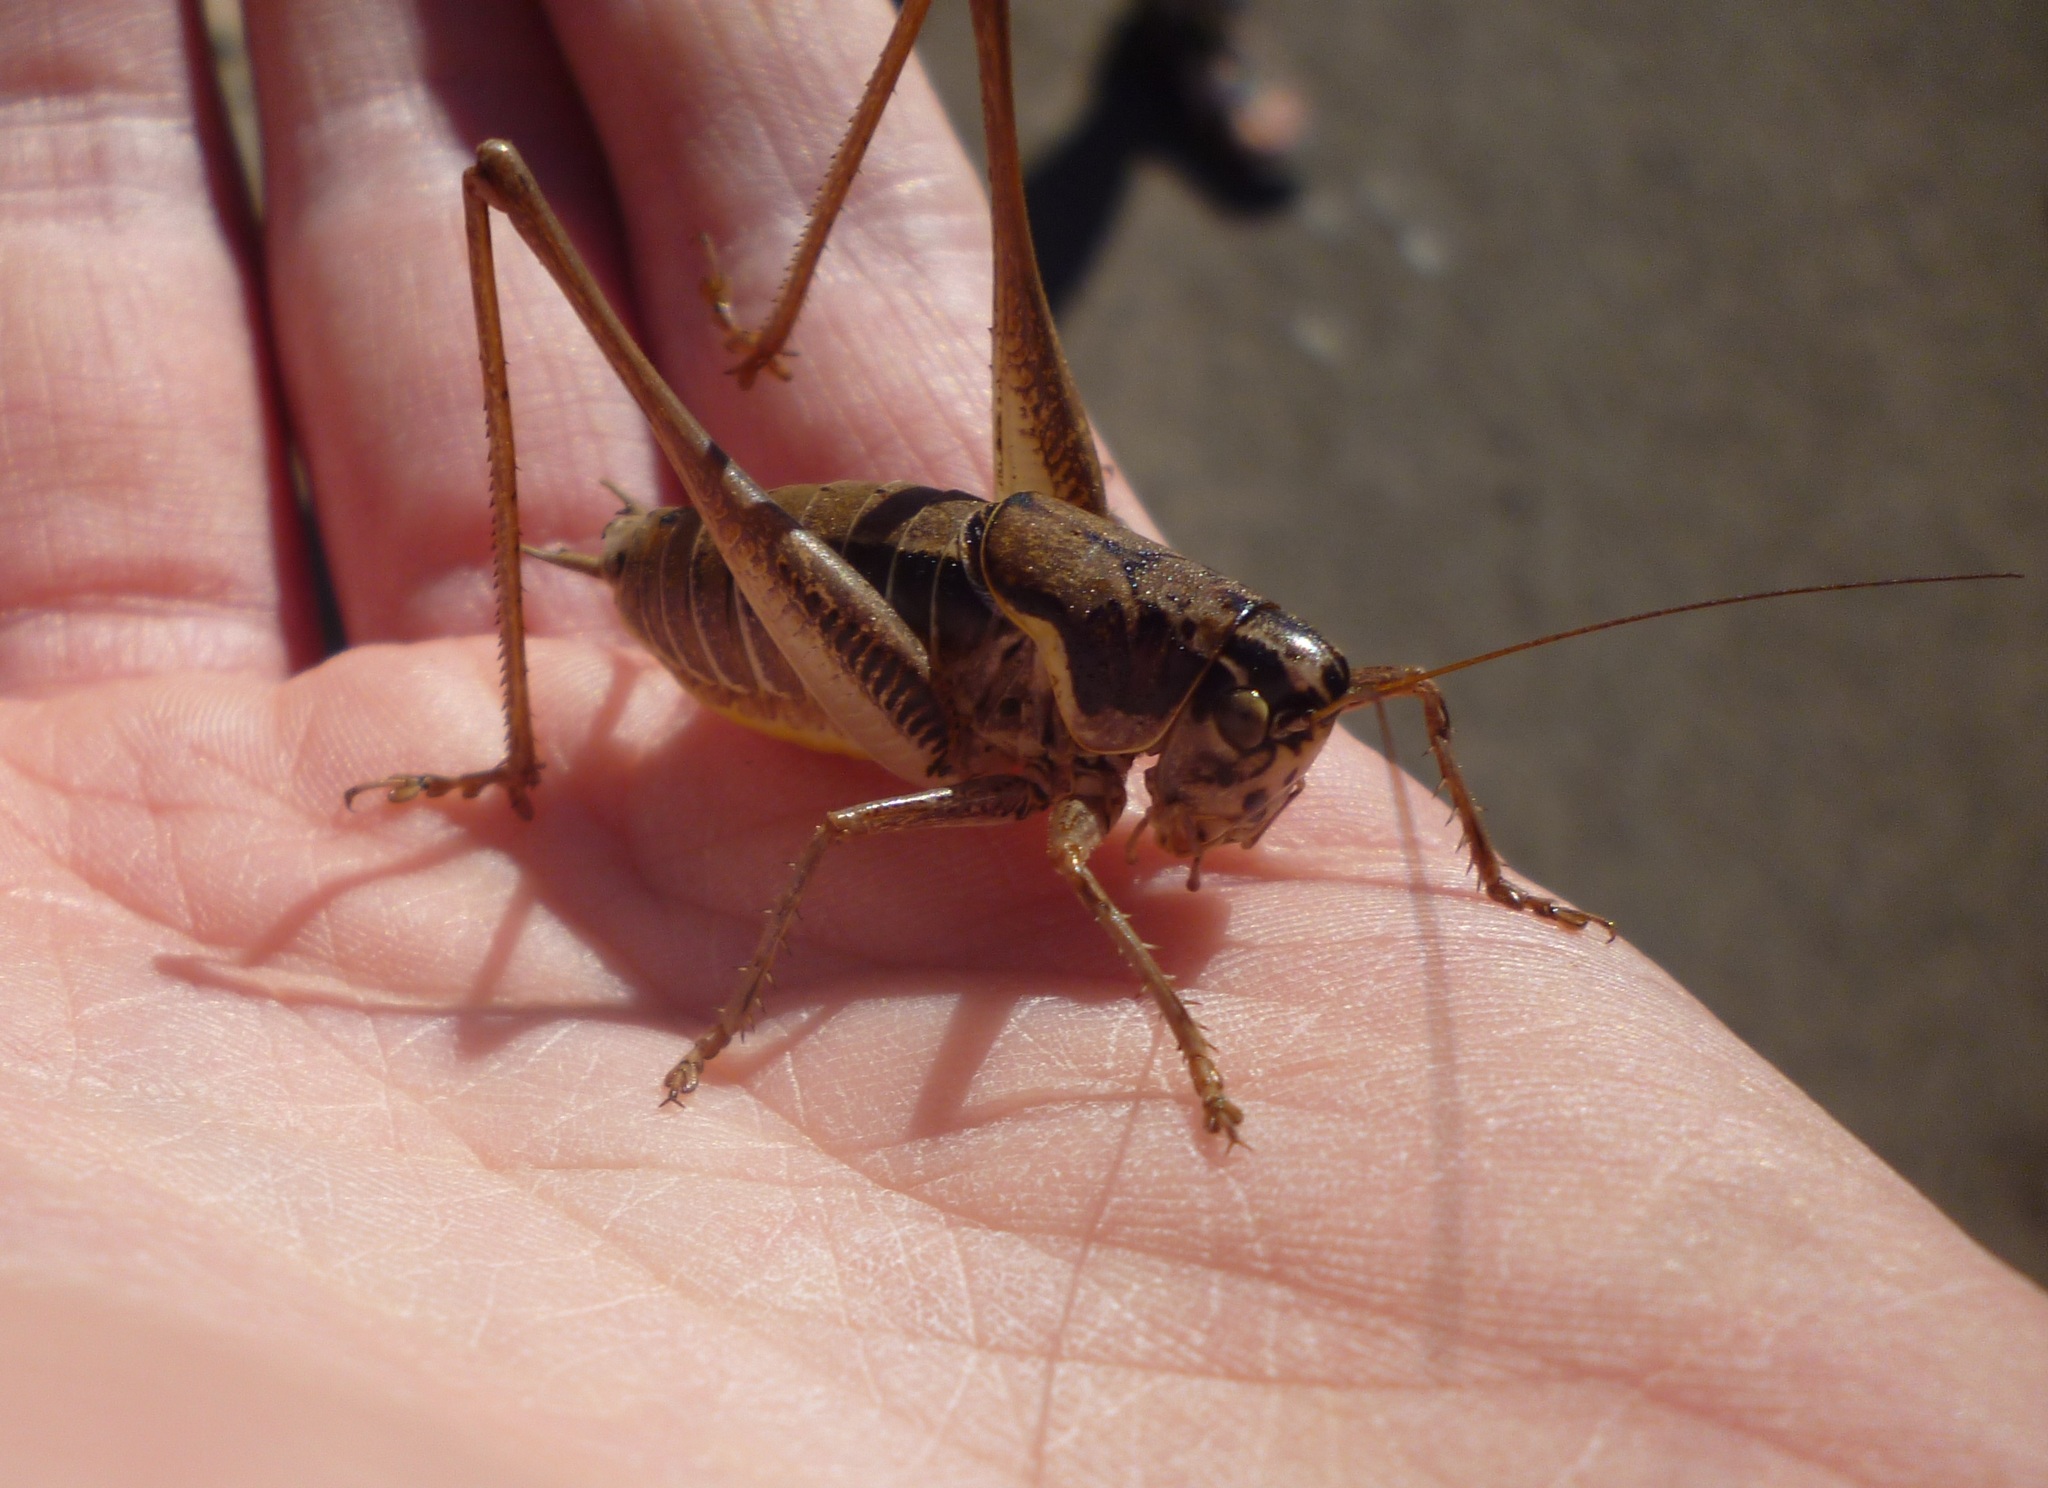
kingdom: Animalia
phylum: Arthropoda
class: Insecta
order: Orthoptera
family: Tettigoniidae
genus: Eupholidoptera
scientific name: Eupholidoptera lyra
